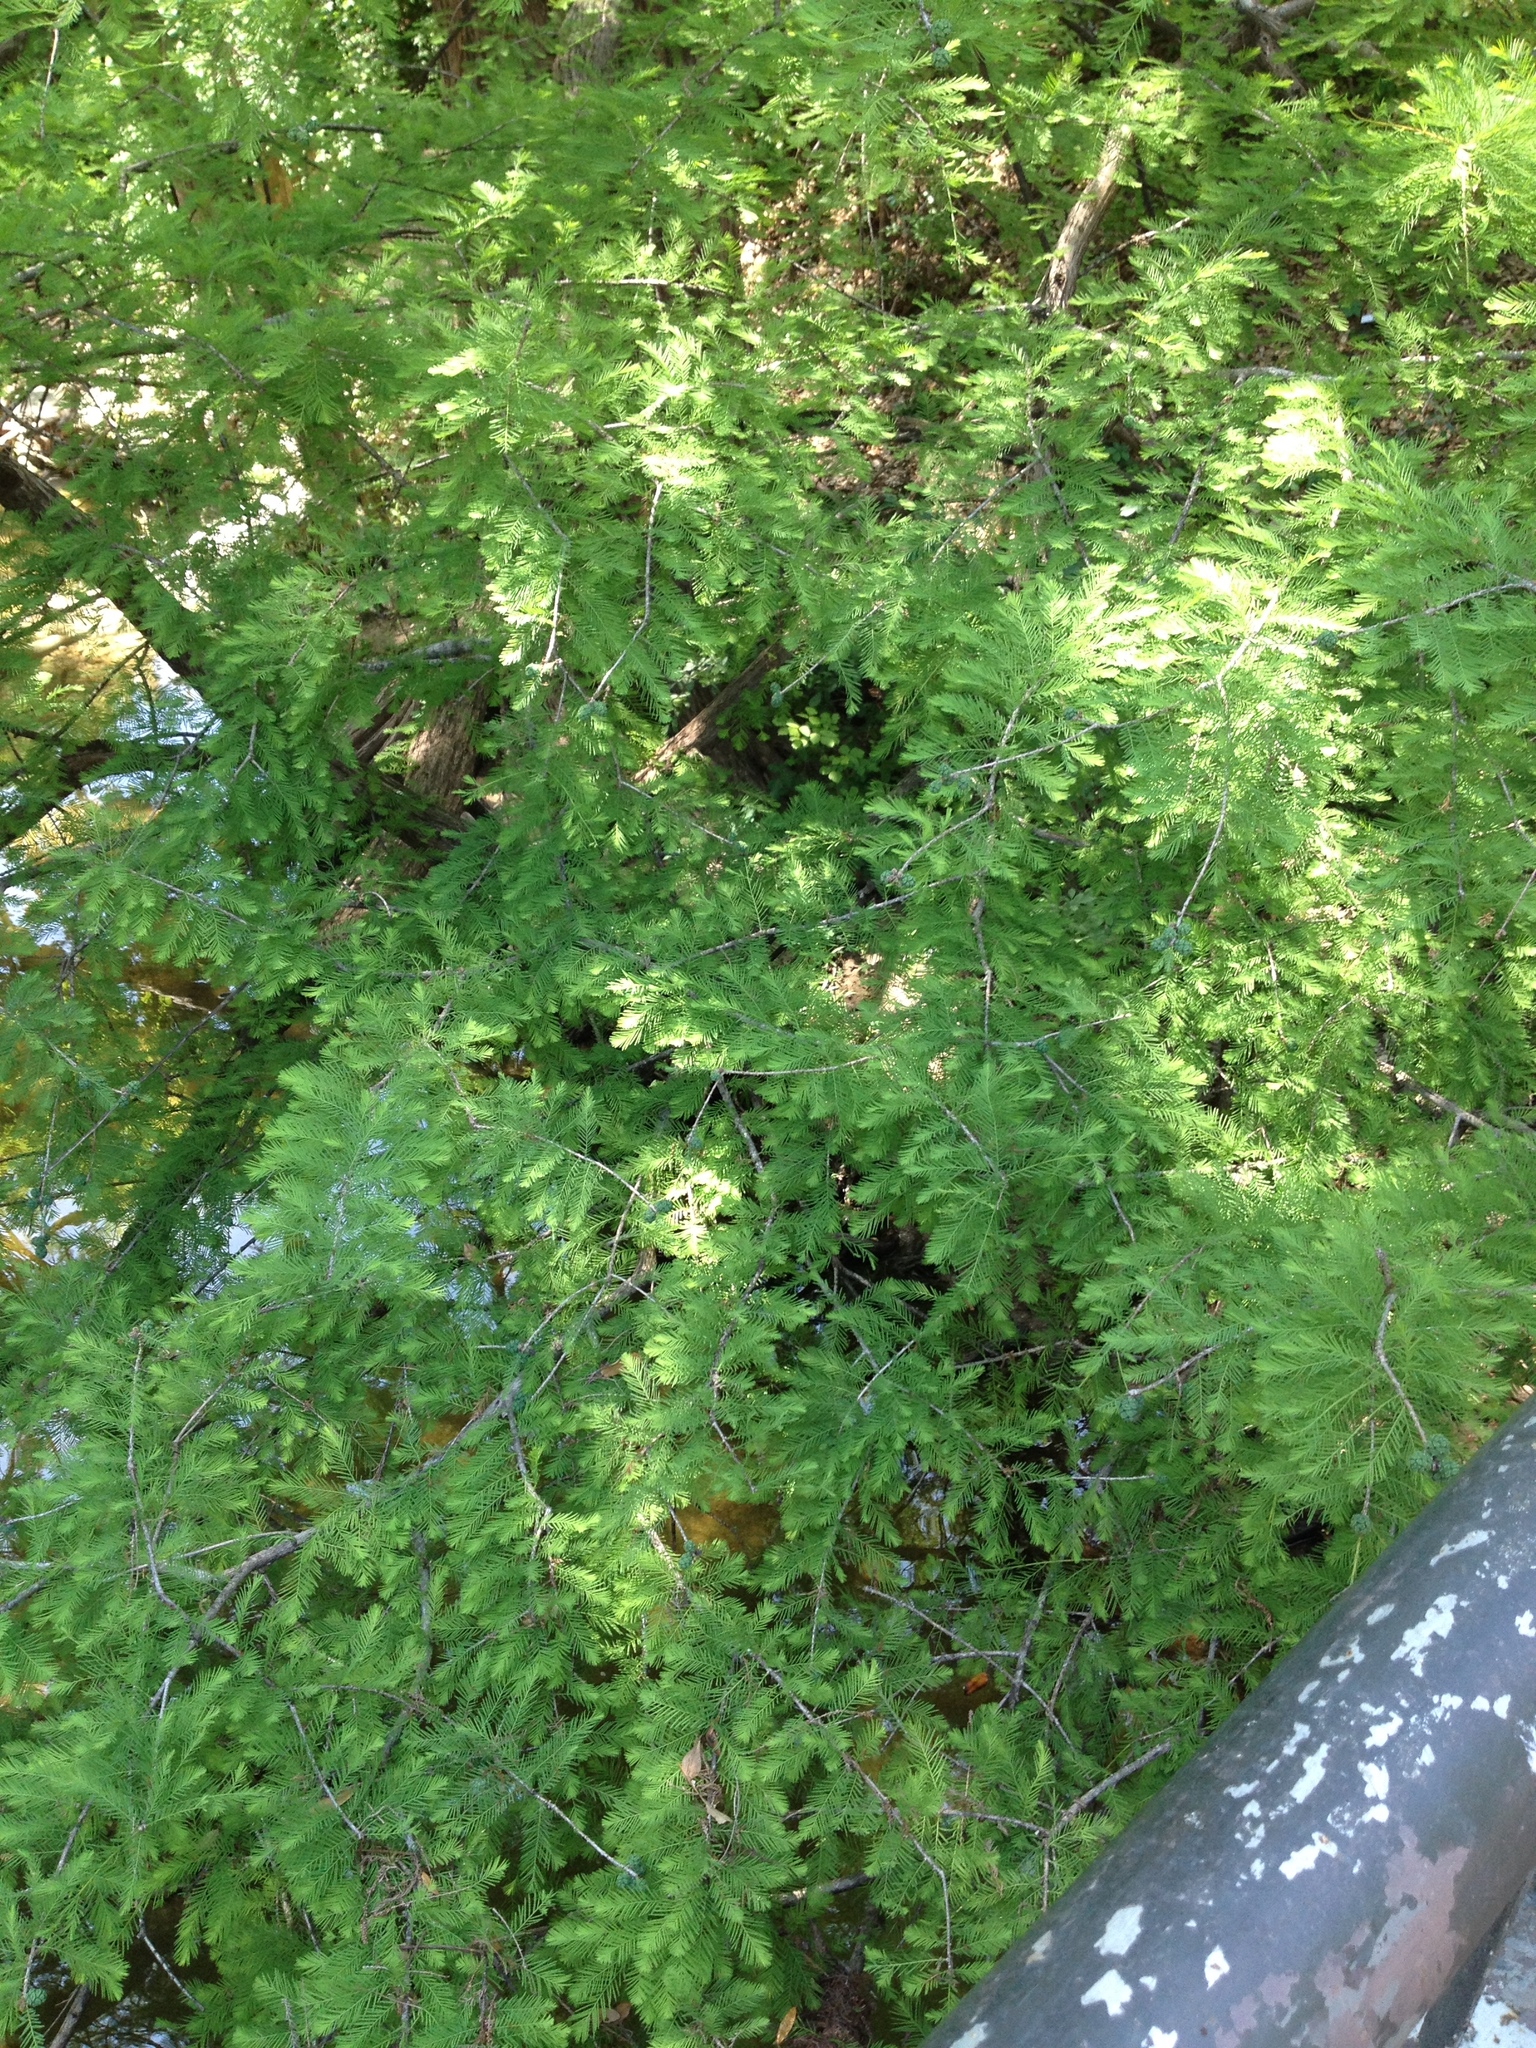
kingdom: Plantae
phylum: Tracheophyta
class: Pinopsida
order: Pinales
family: Cupressaceae
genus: Taxodium
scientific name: Taxodium distichum
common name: Bald cypress
